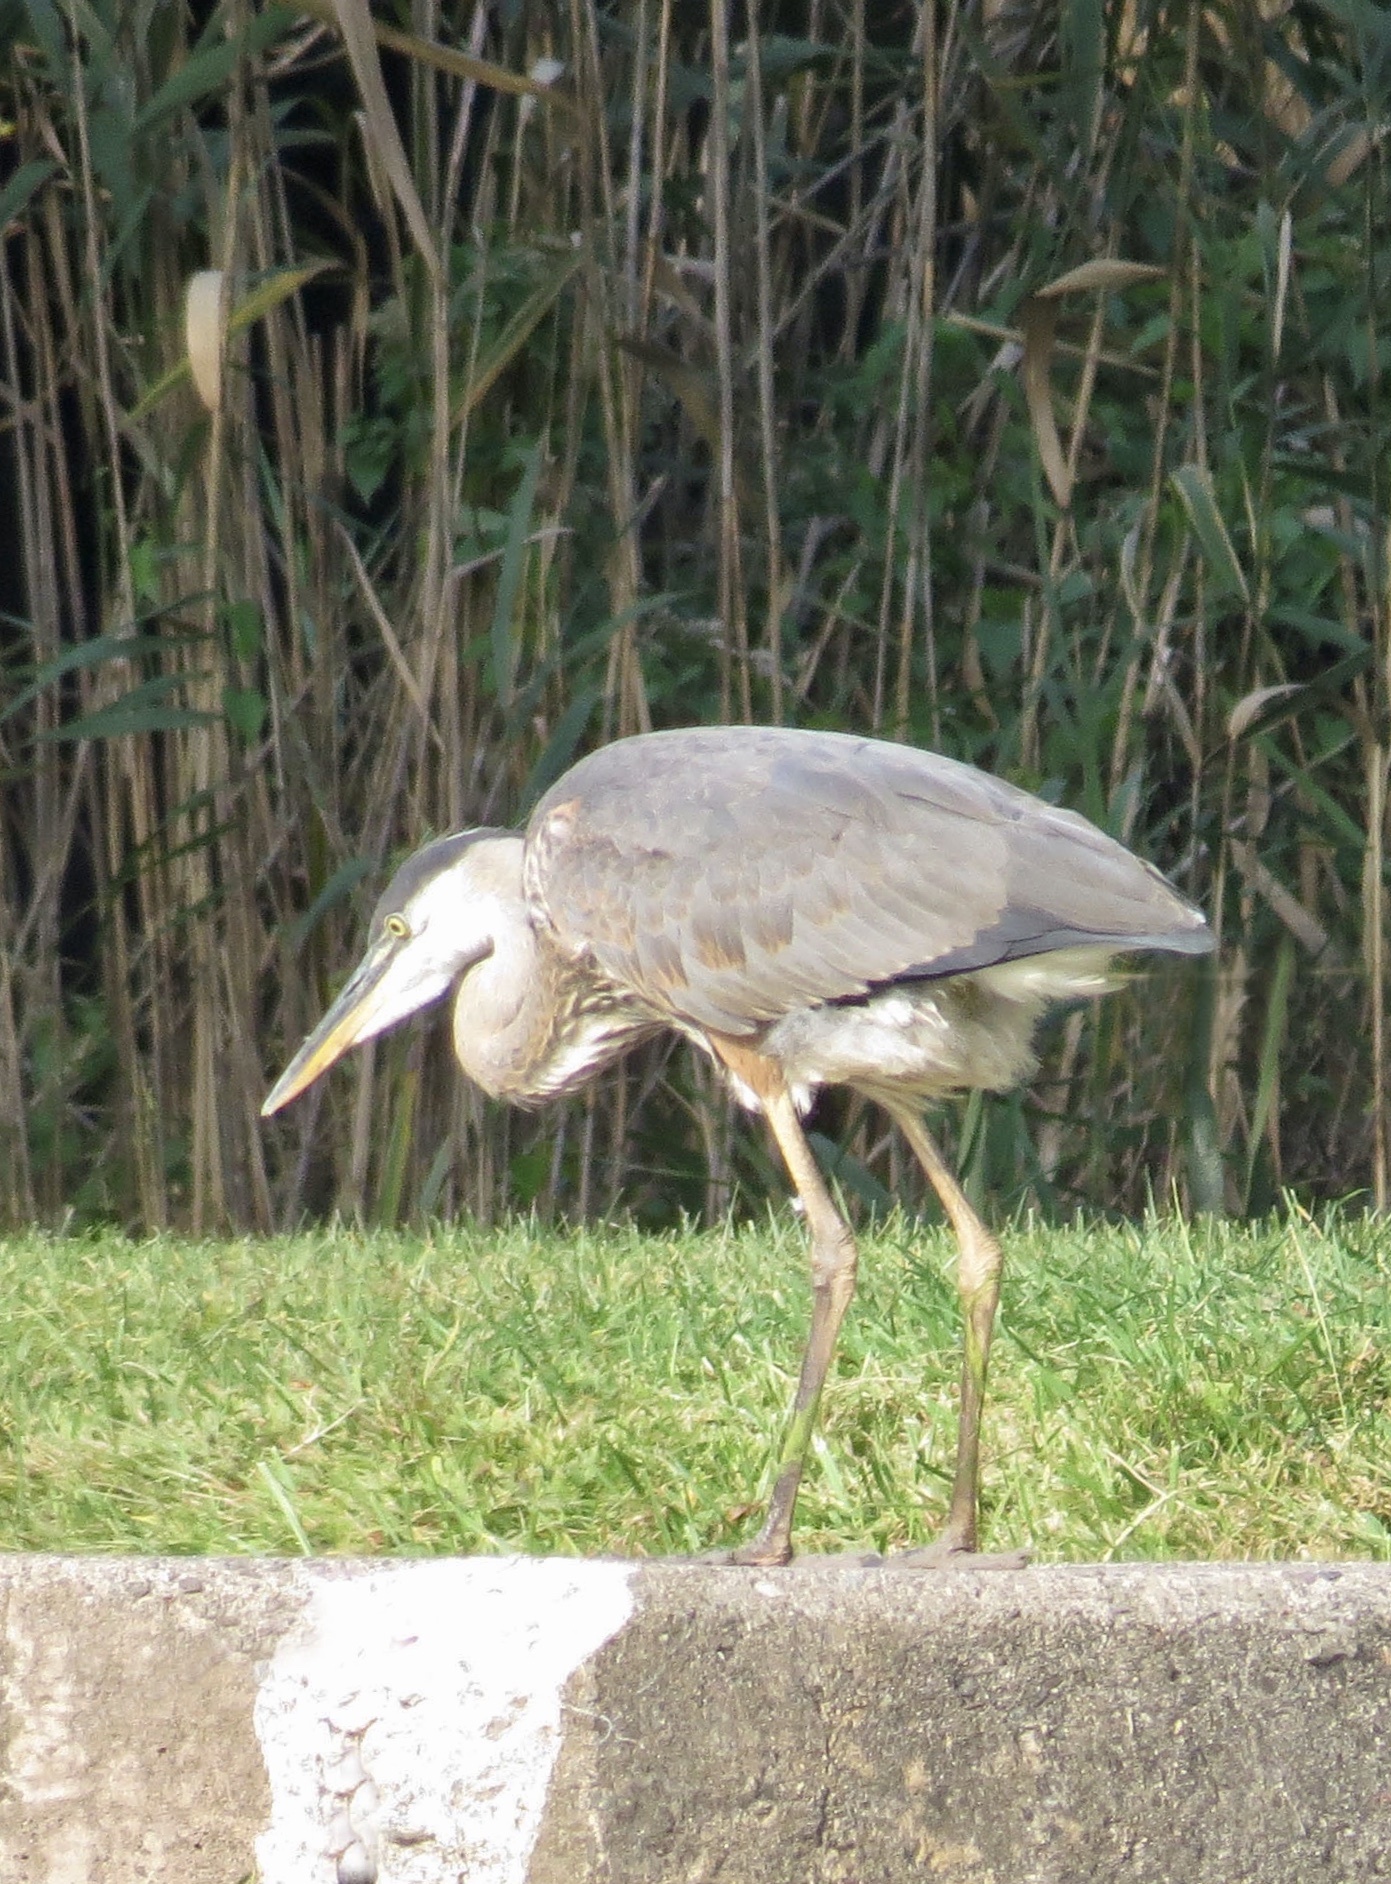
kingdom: Animalia
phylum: Chordata
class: Aves
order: Pelecaniformes
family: Ardeidae
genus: Ardea
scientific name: Ardea herodias
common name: Great blue heron
